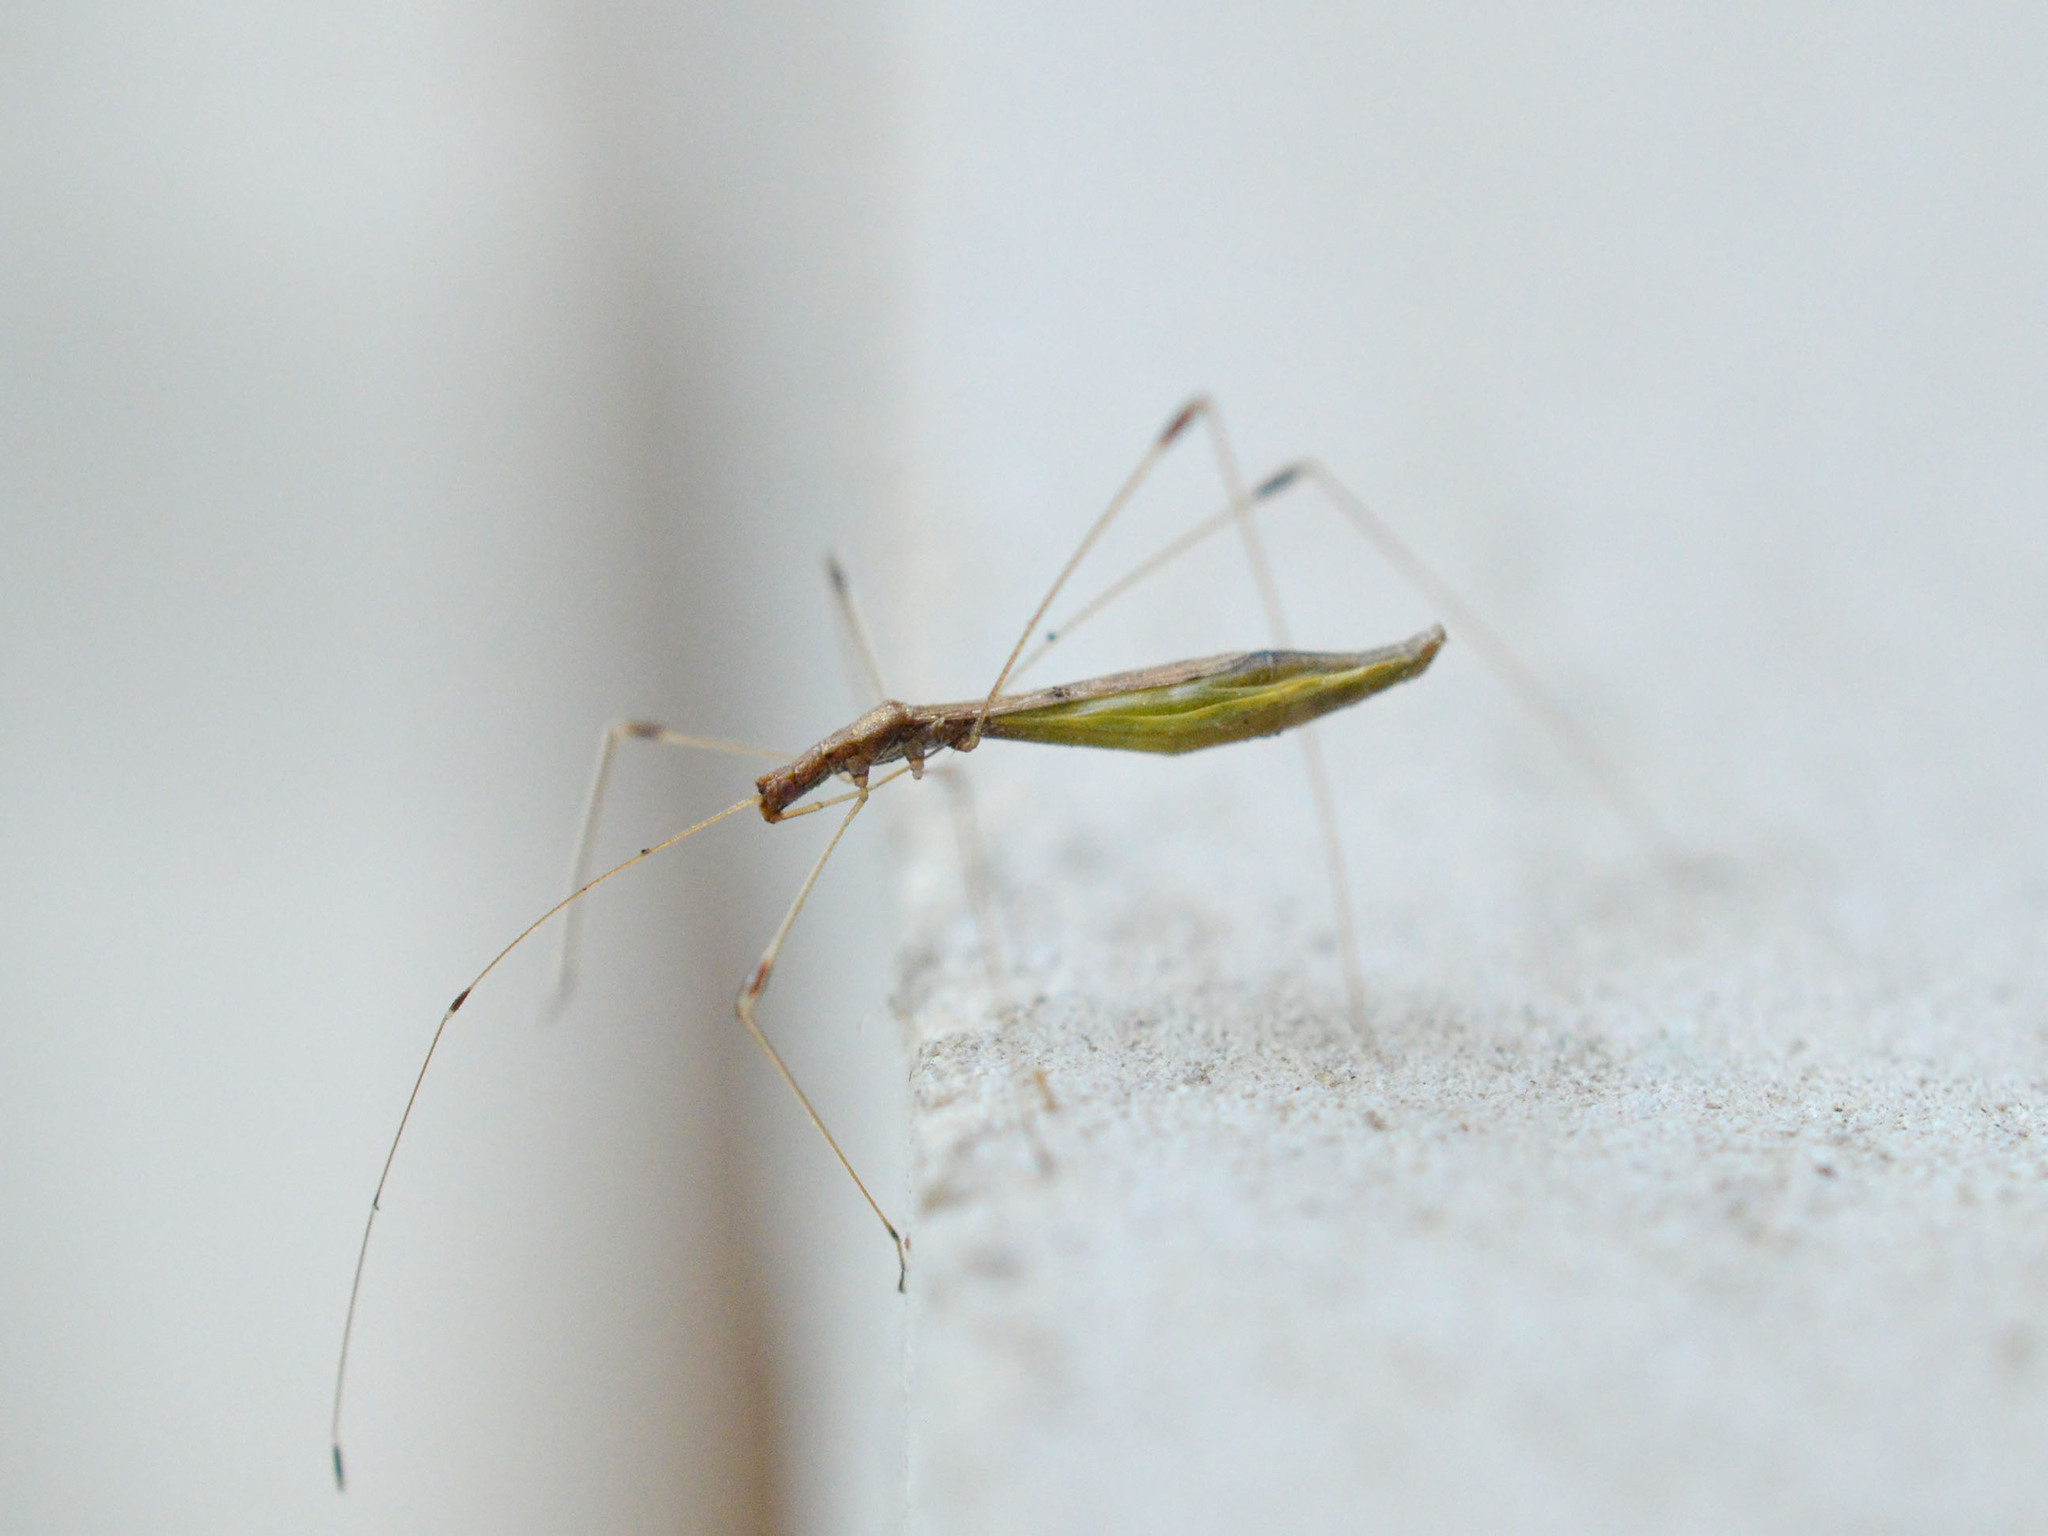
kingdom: Animalia
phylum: Arthropoda
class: Insecta
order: Hemiptera
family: Berytidae
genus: Apoplymus
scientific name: Apoplymus pectoralis
